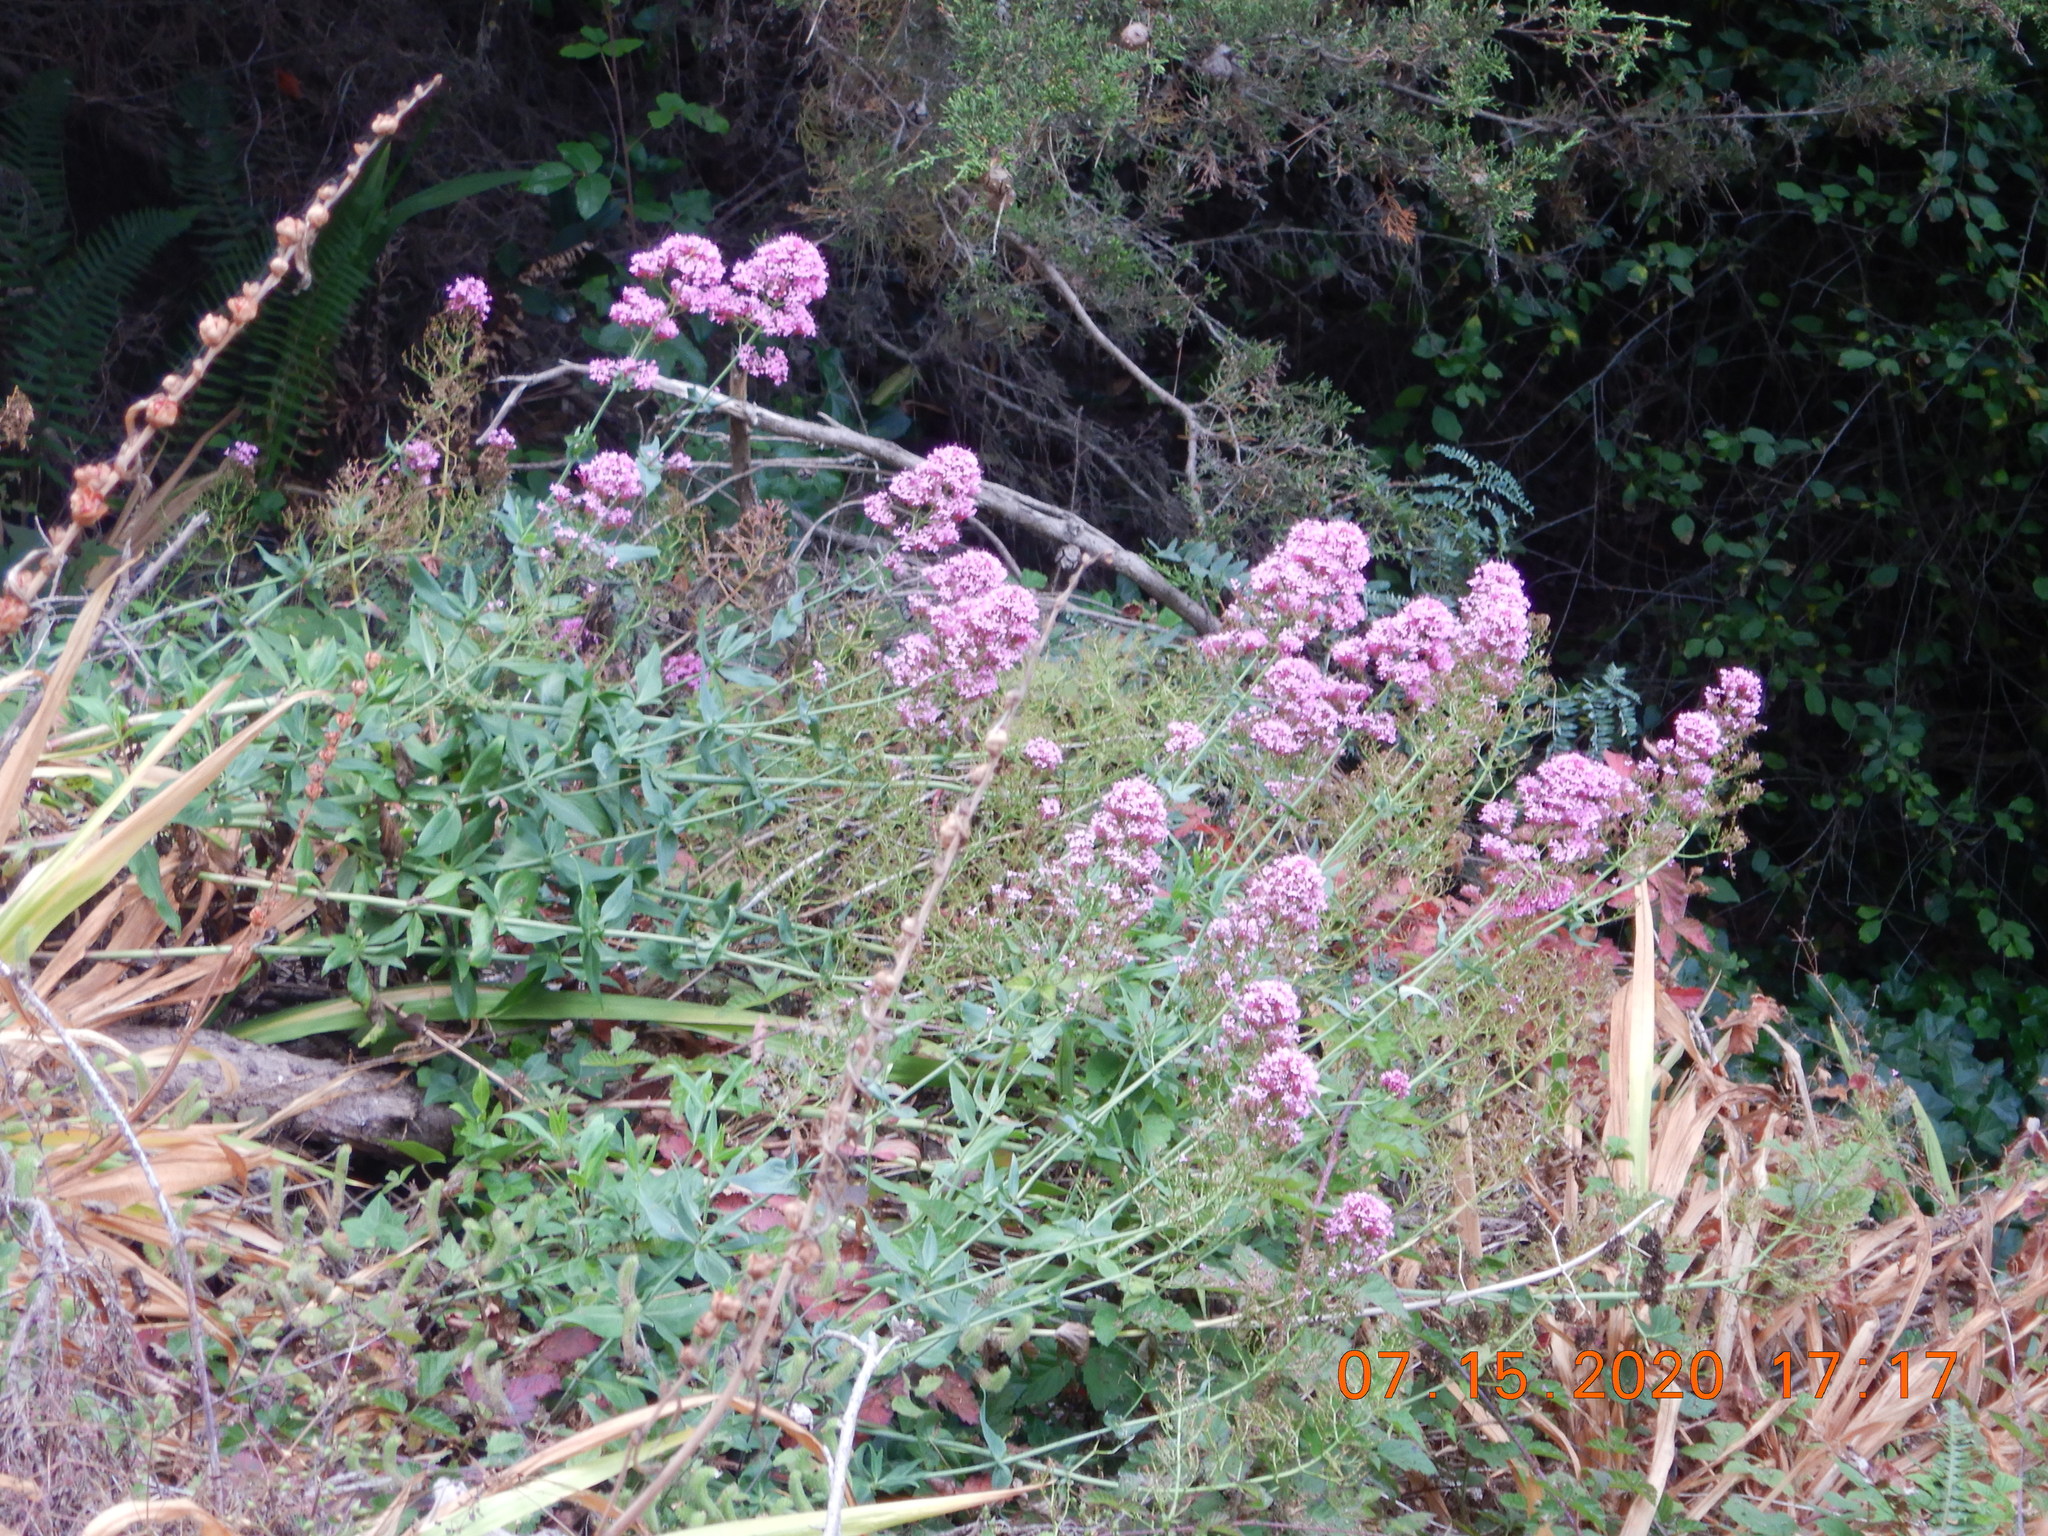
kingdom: Plantae
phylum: Tracheophyta
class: Magnoliopsida
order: Dipsacales
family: Caprifoliaceae
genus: Centranthus
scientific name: Centranthus ruber
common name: Red valerian
